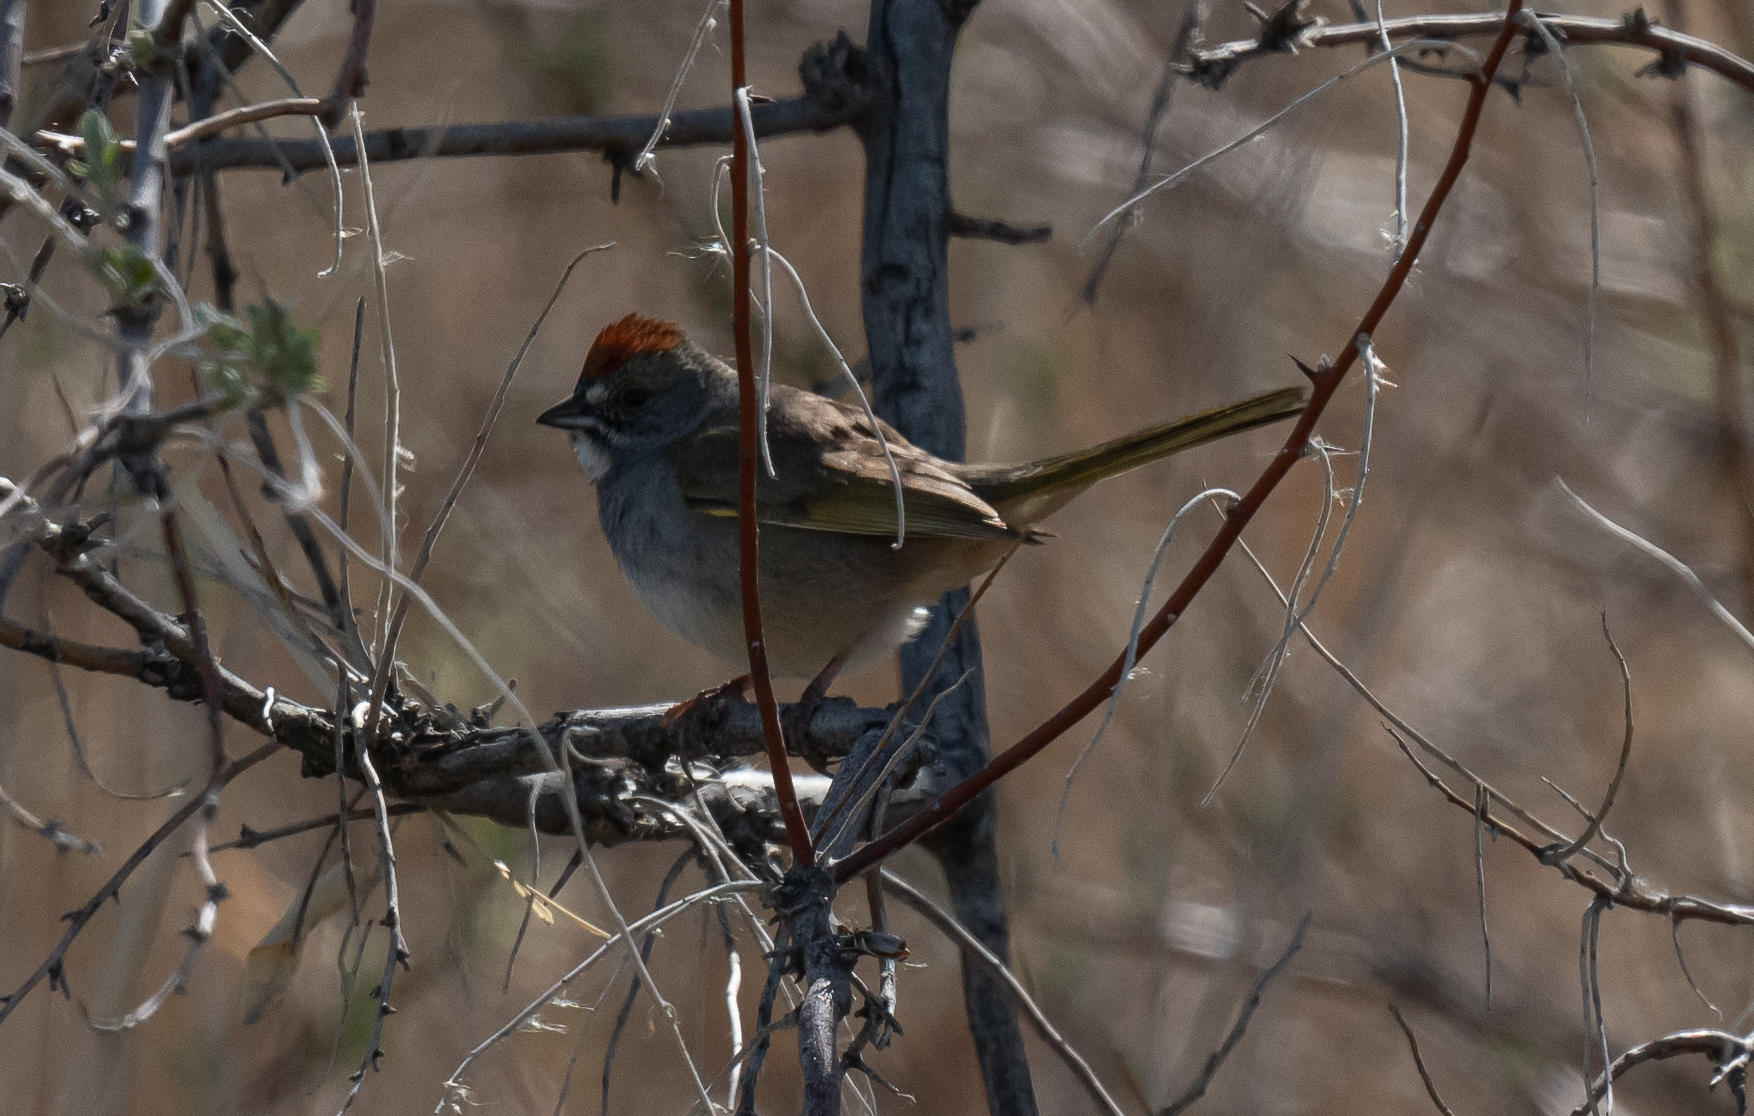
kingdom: Animalia
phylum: Chordata
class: Aves
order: Passeriformes
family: Passerellidae
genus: Pipilo
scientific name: Pipilo chlorurus
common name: Green-tailed towhee
